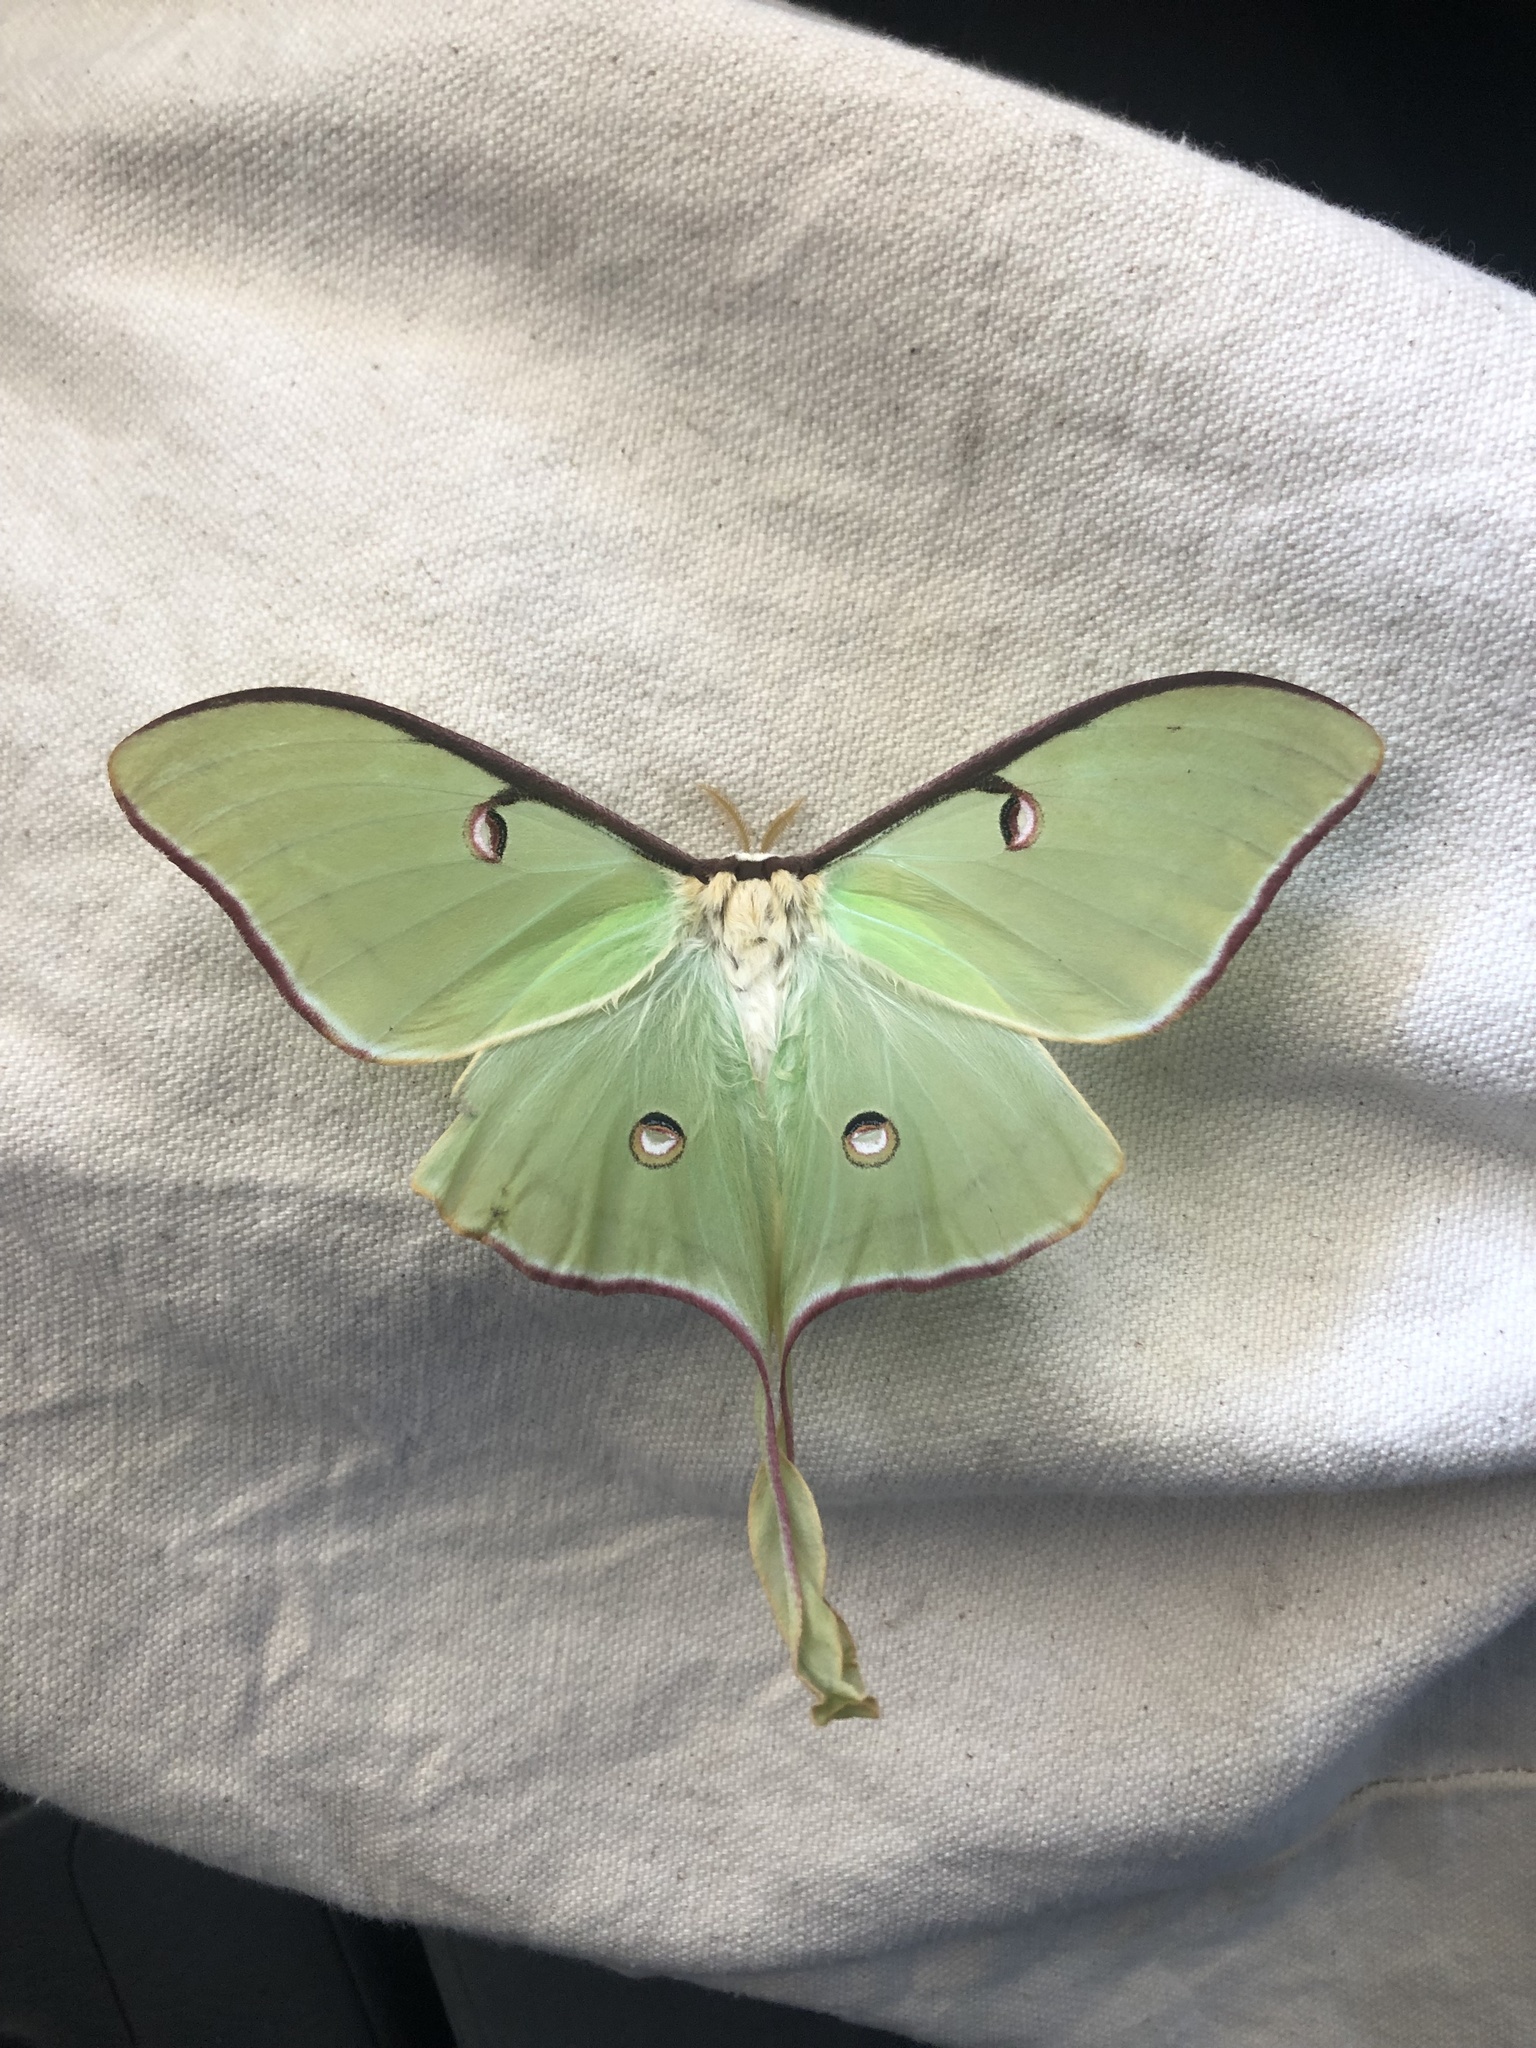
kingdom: Animalia
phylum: Arthropoda
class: Insecta
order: Lepidoptera
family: Saturniidae
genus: Actias
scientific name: Actias luna
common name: Luna moth
